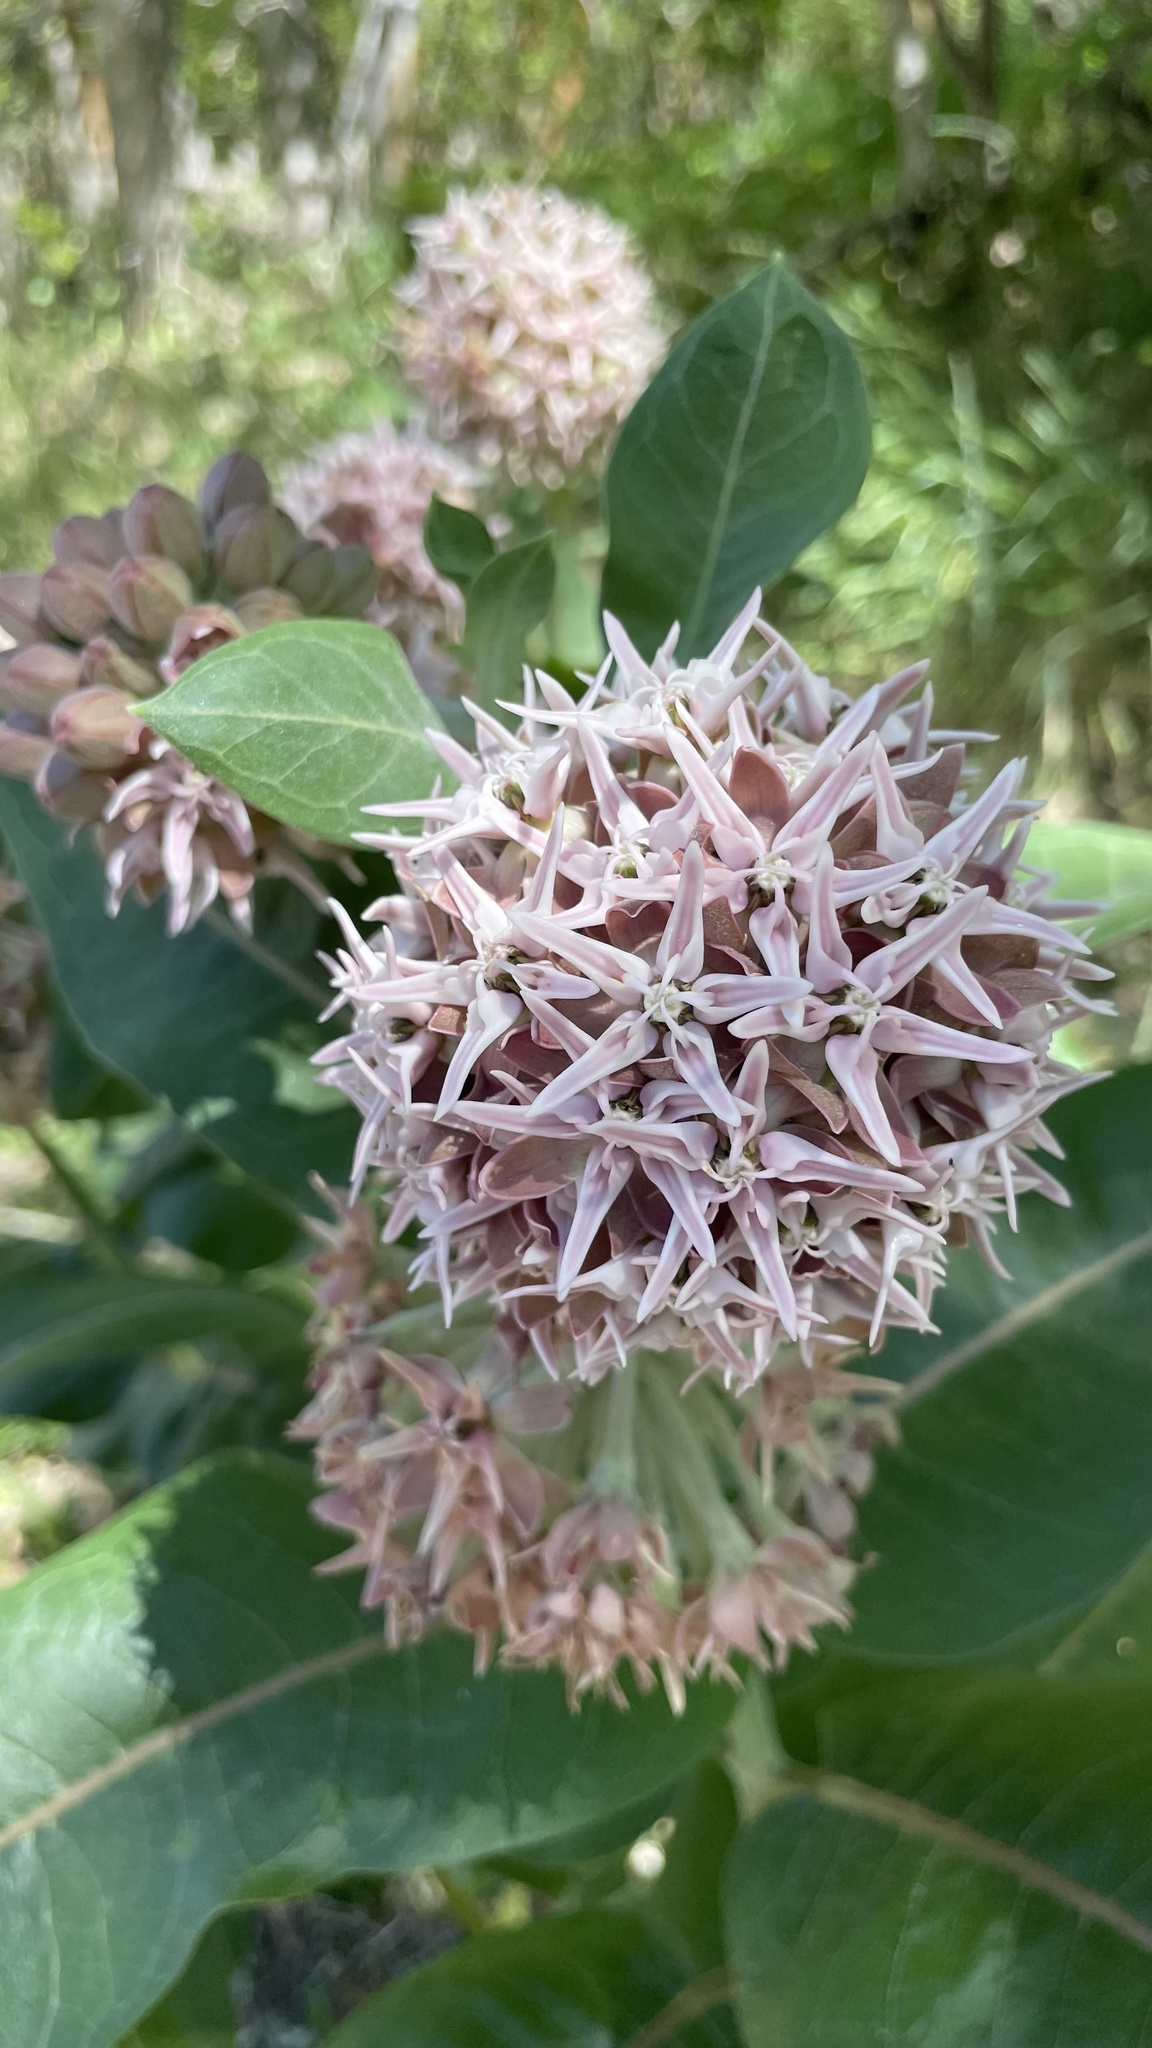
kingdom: Plantae
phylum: Tracheophyta
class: Magnoliopsida
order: Gentianales
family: Apocynaceae
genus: Asclepias
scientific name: Asclepias speciosa
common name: Showy milkweed
